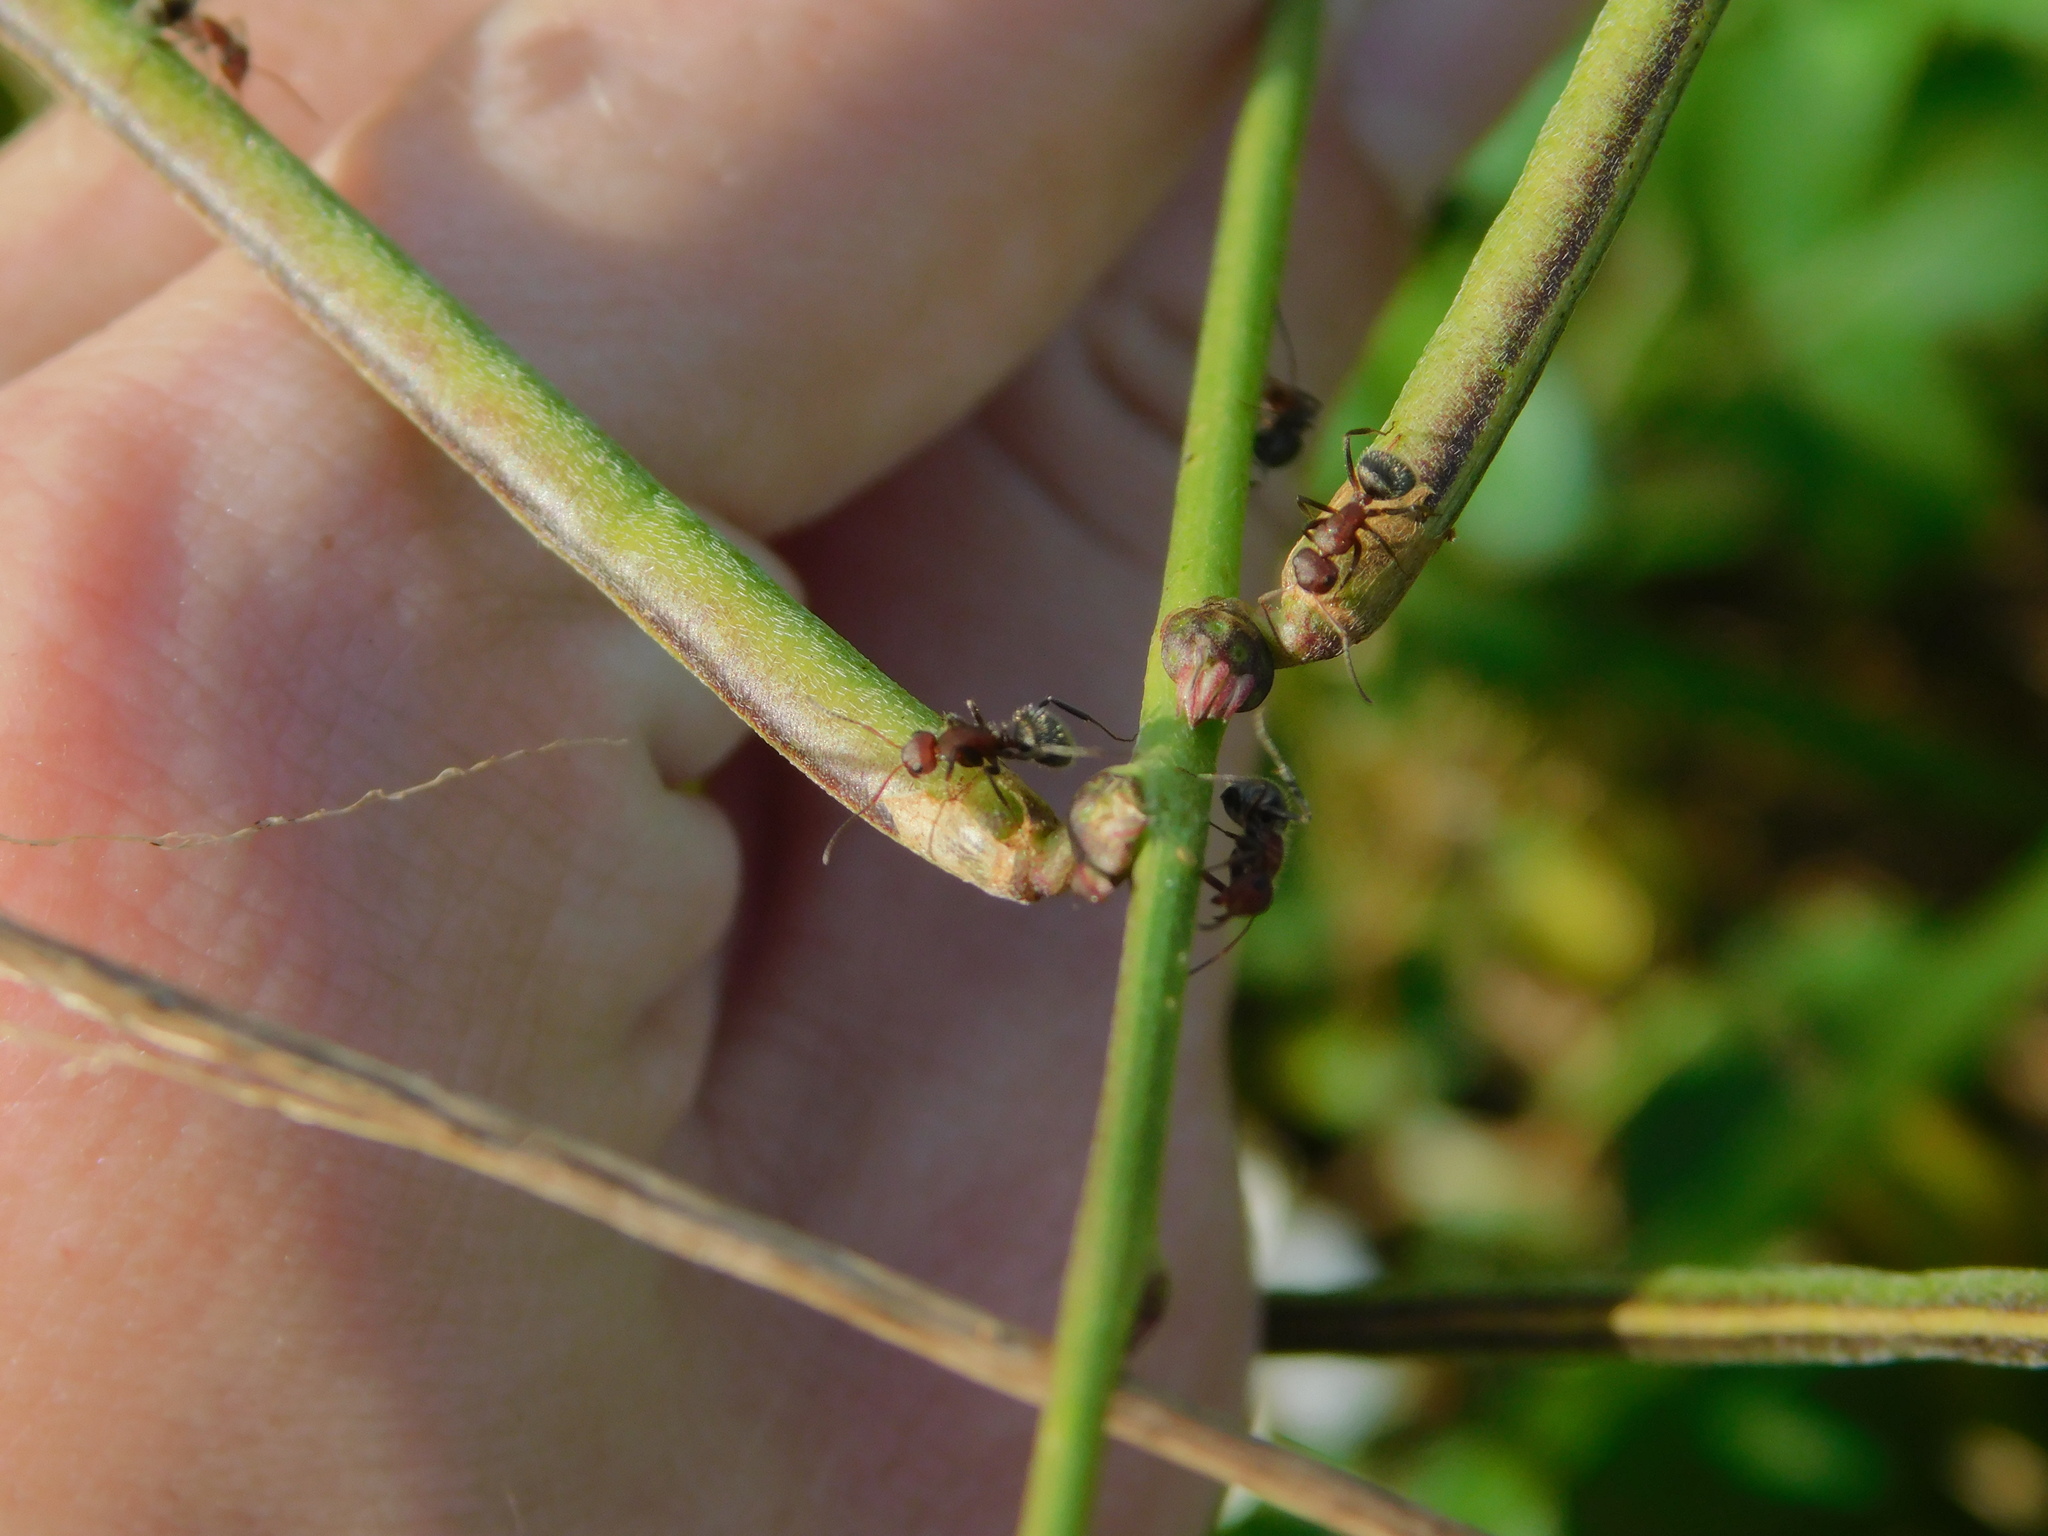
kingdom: Animalia
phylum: Arthropoda
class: Insecta
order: Hymenoptera
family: Formicidae
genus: Camponotus
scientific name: Camponotus planatus
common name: Compact carpenter ant
